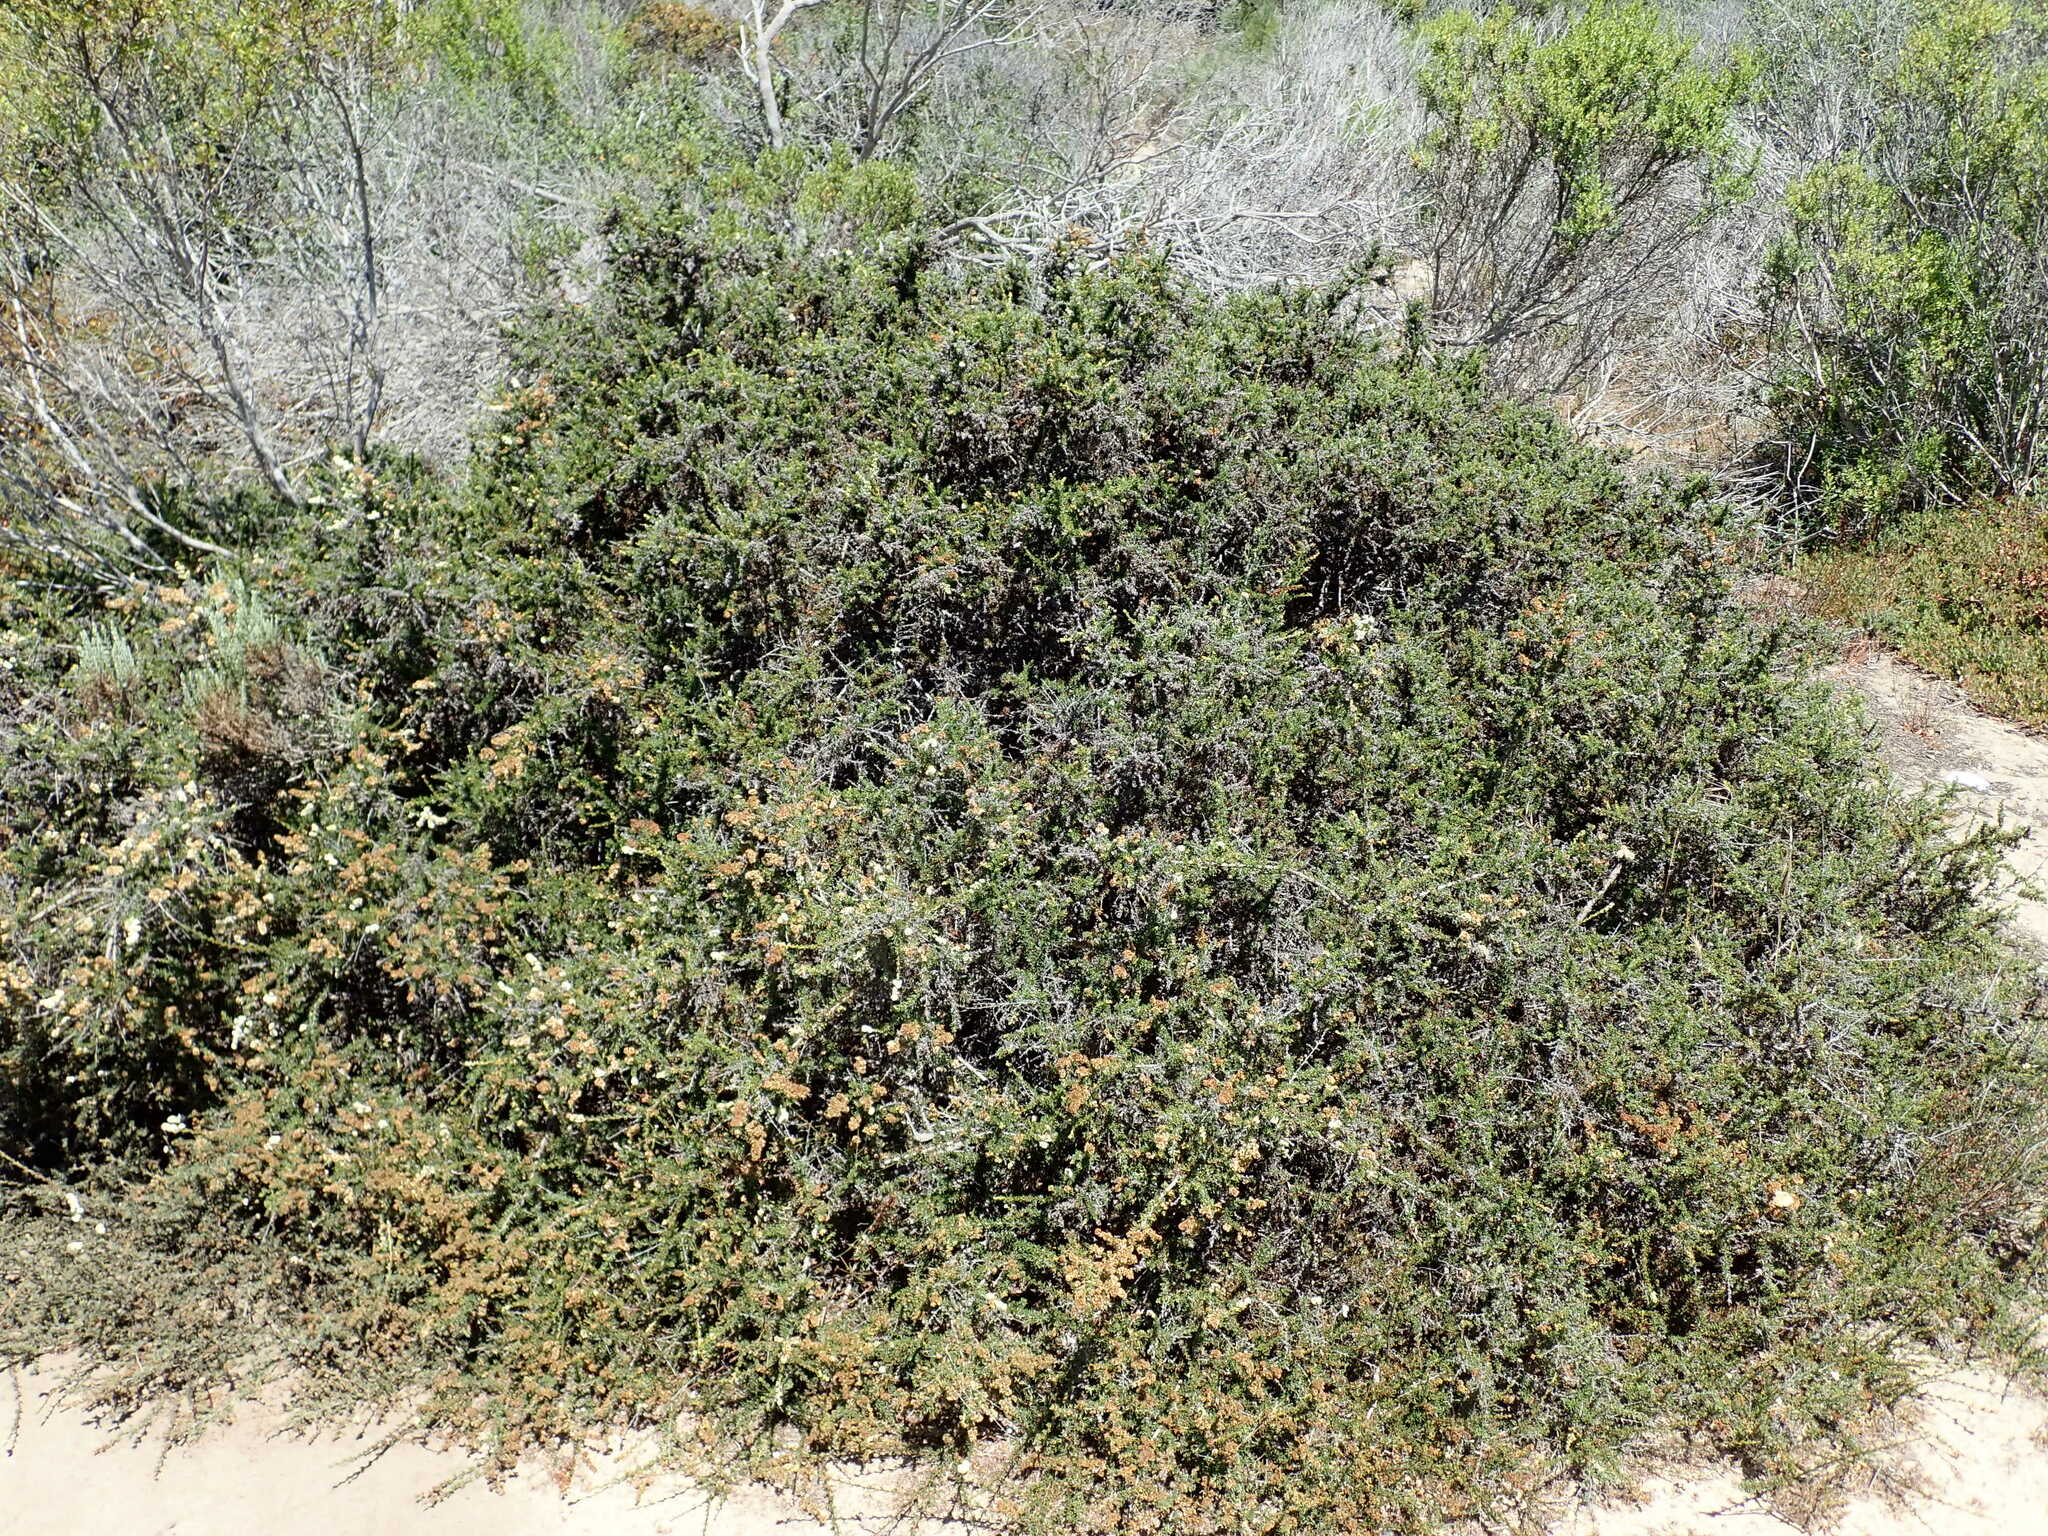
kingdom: Plantae
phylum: Tracheophyta
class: Magnoliopsida
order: Rosales
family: Rosaceae
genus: Adenostoma
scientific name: Adenostoma fasciculatum
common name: Chamise
